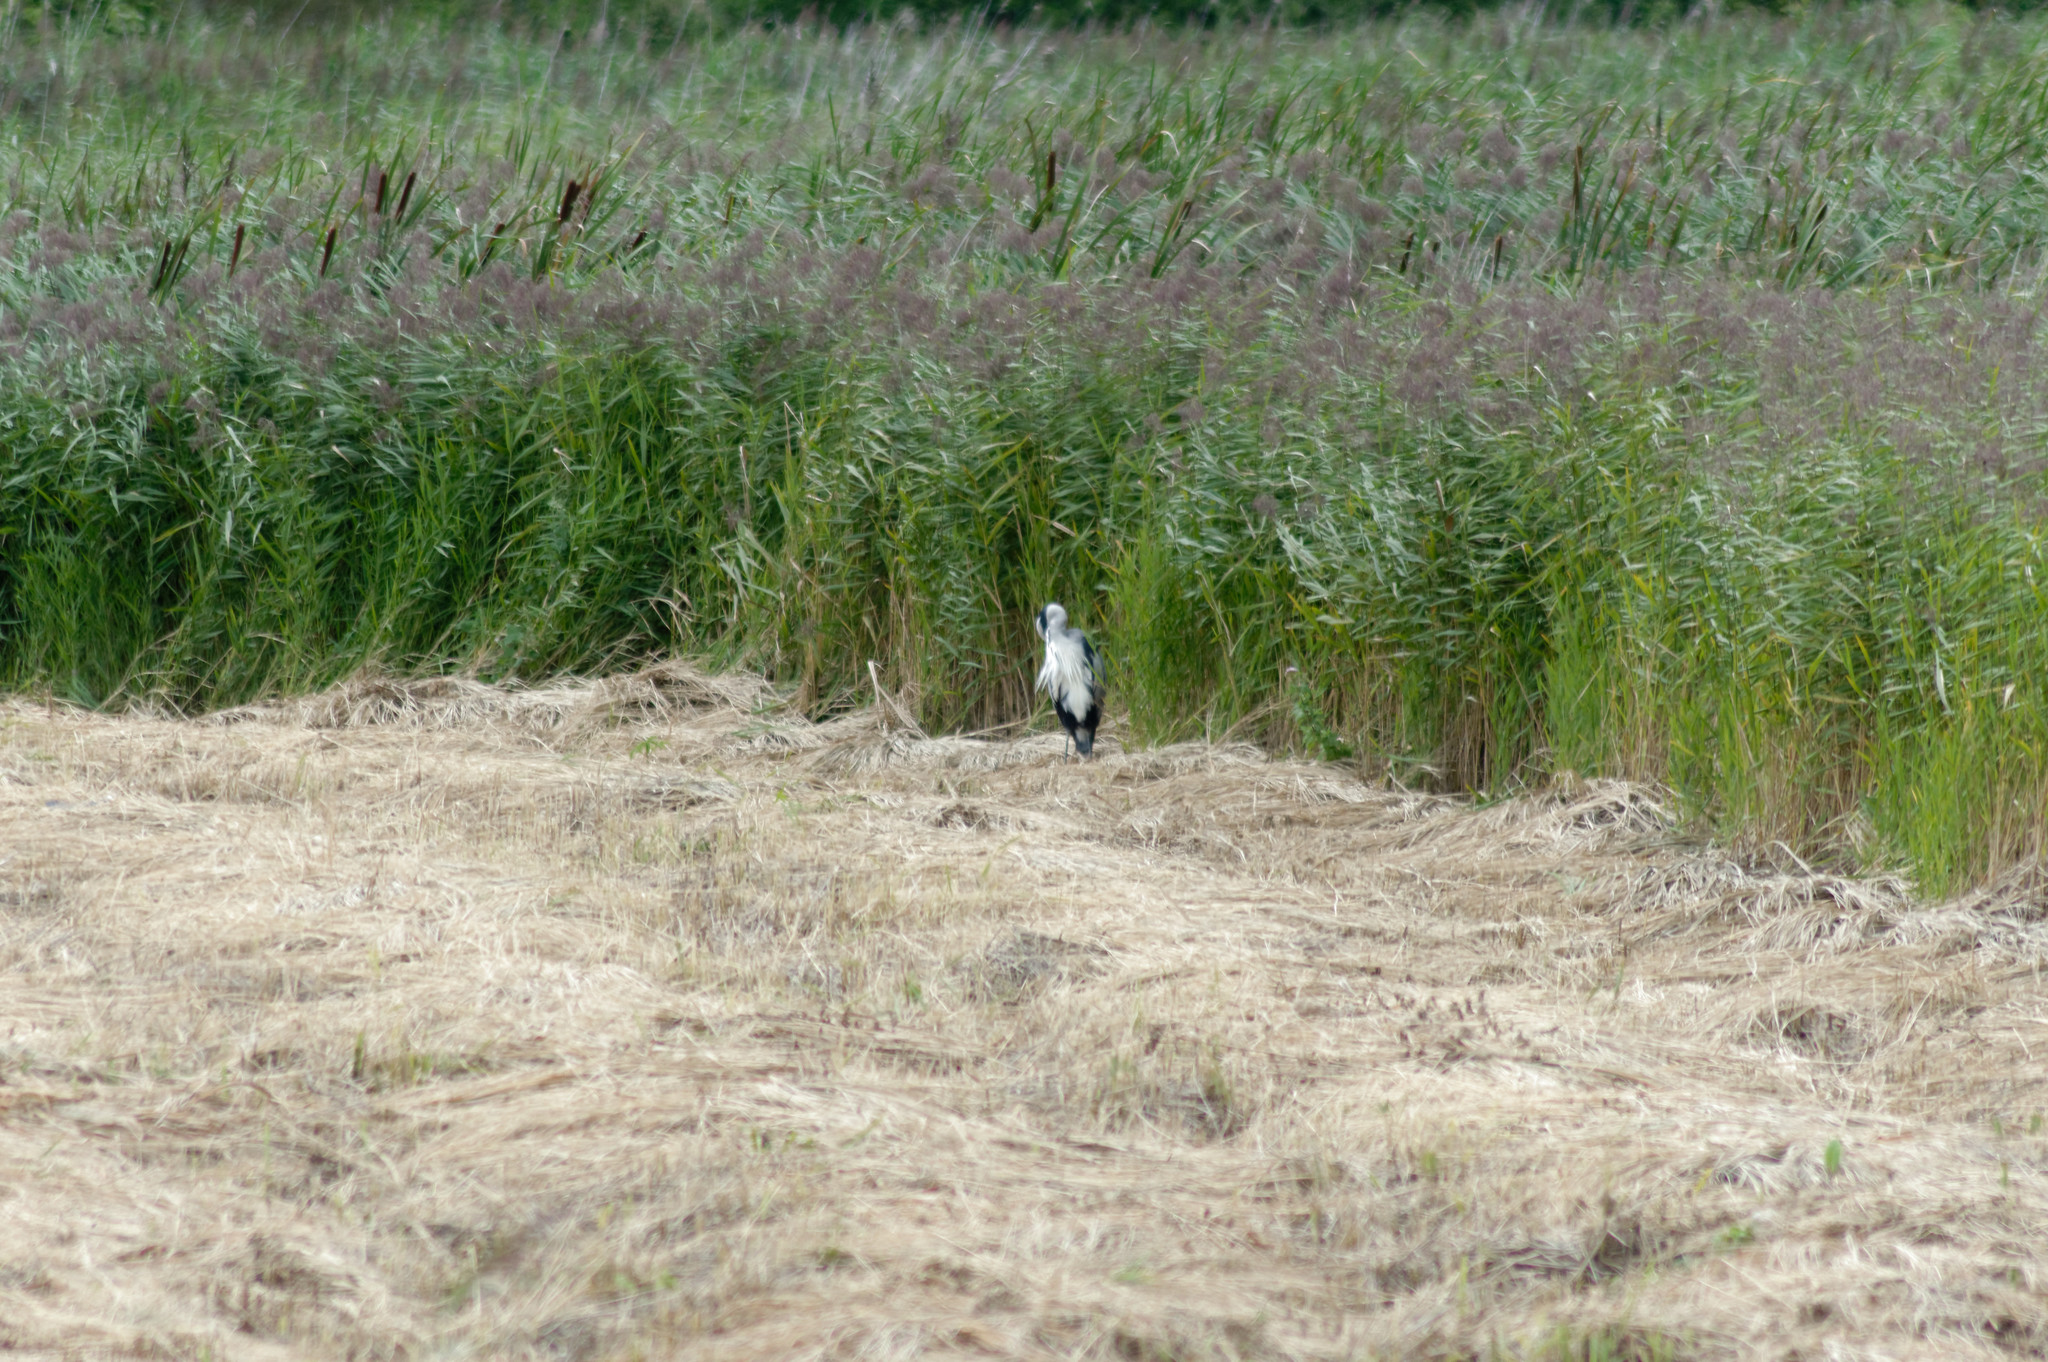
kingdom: Animalia
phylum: Chordata
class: Aves
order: Pelecaniformes
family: Ardeidae
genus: Ardea
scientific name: Ardea cinerea
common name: Grey heron
